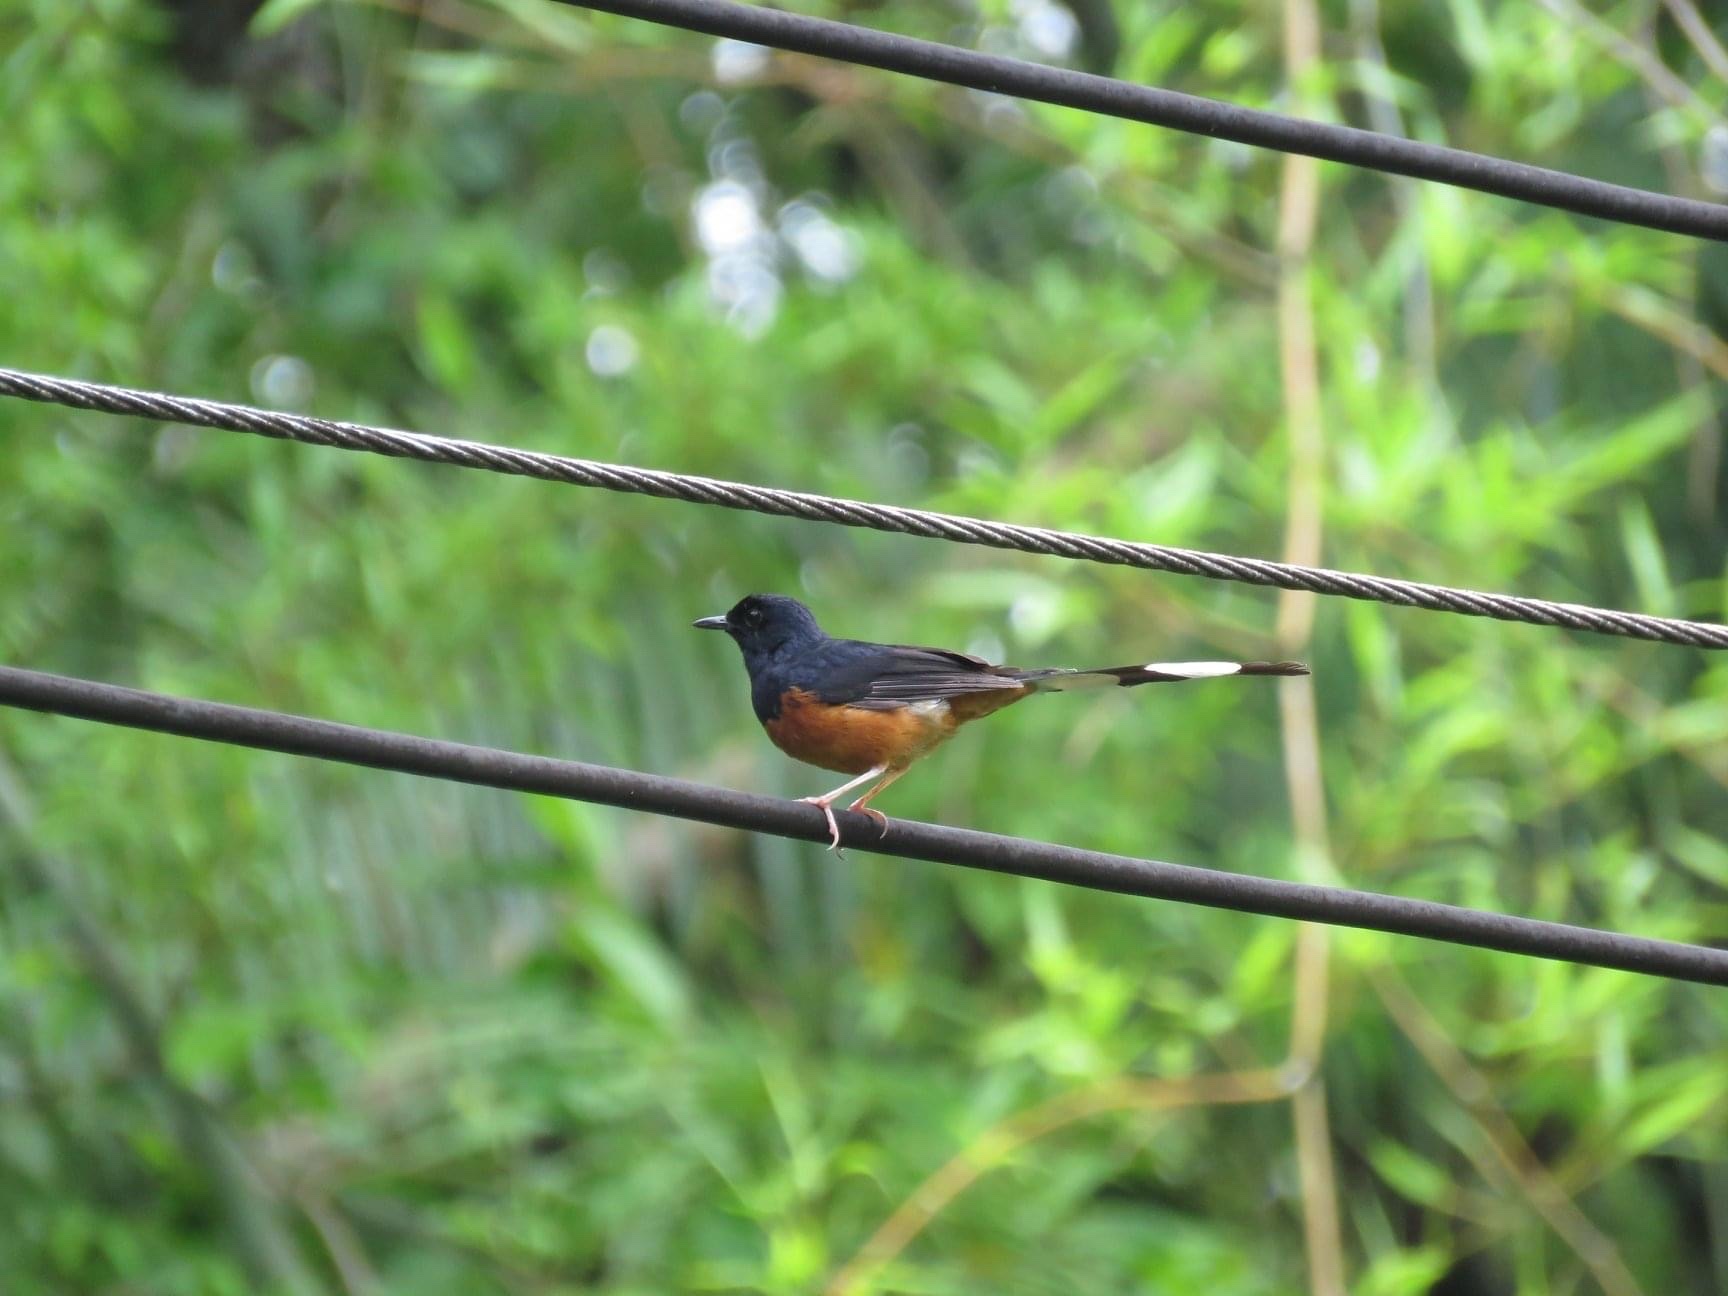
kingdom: Animalia
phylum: Chordata
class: Aves
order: Passeriformes
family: Muscicapidae
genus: Copsychus
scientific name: Copsychus malabaricus
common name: White-rumped shama
